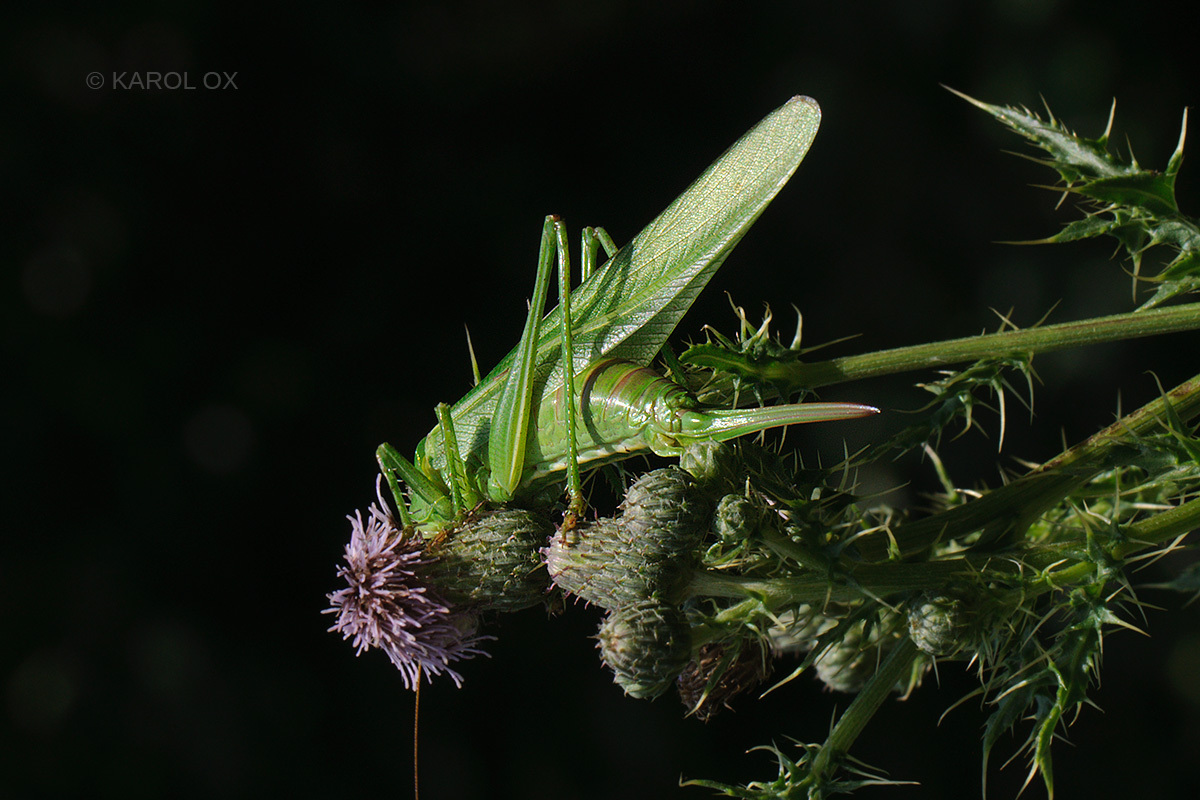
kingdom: Animalia
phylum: Arthropoda
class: Insecta
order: Orthoptera
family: Tettigoniidae
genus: Tettigonia
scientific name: Tettigonia viridissima
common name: Great green bush-cricket
